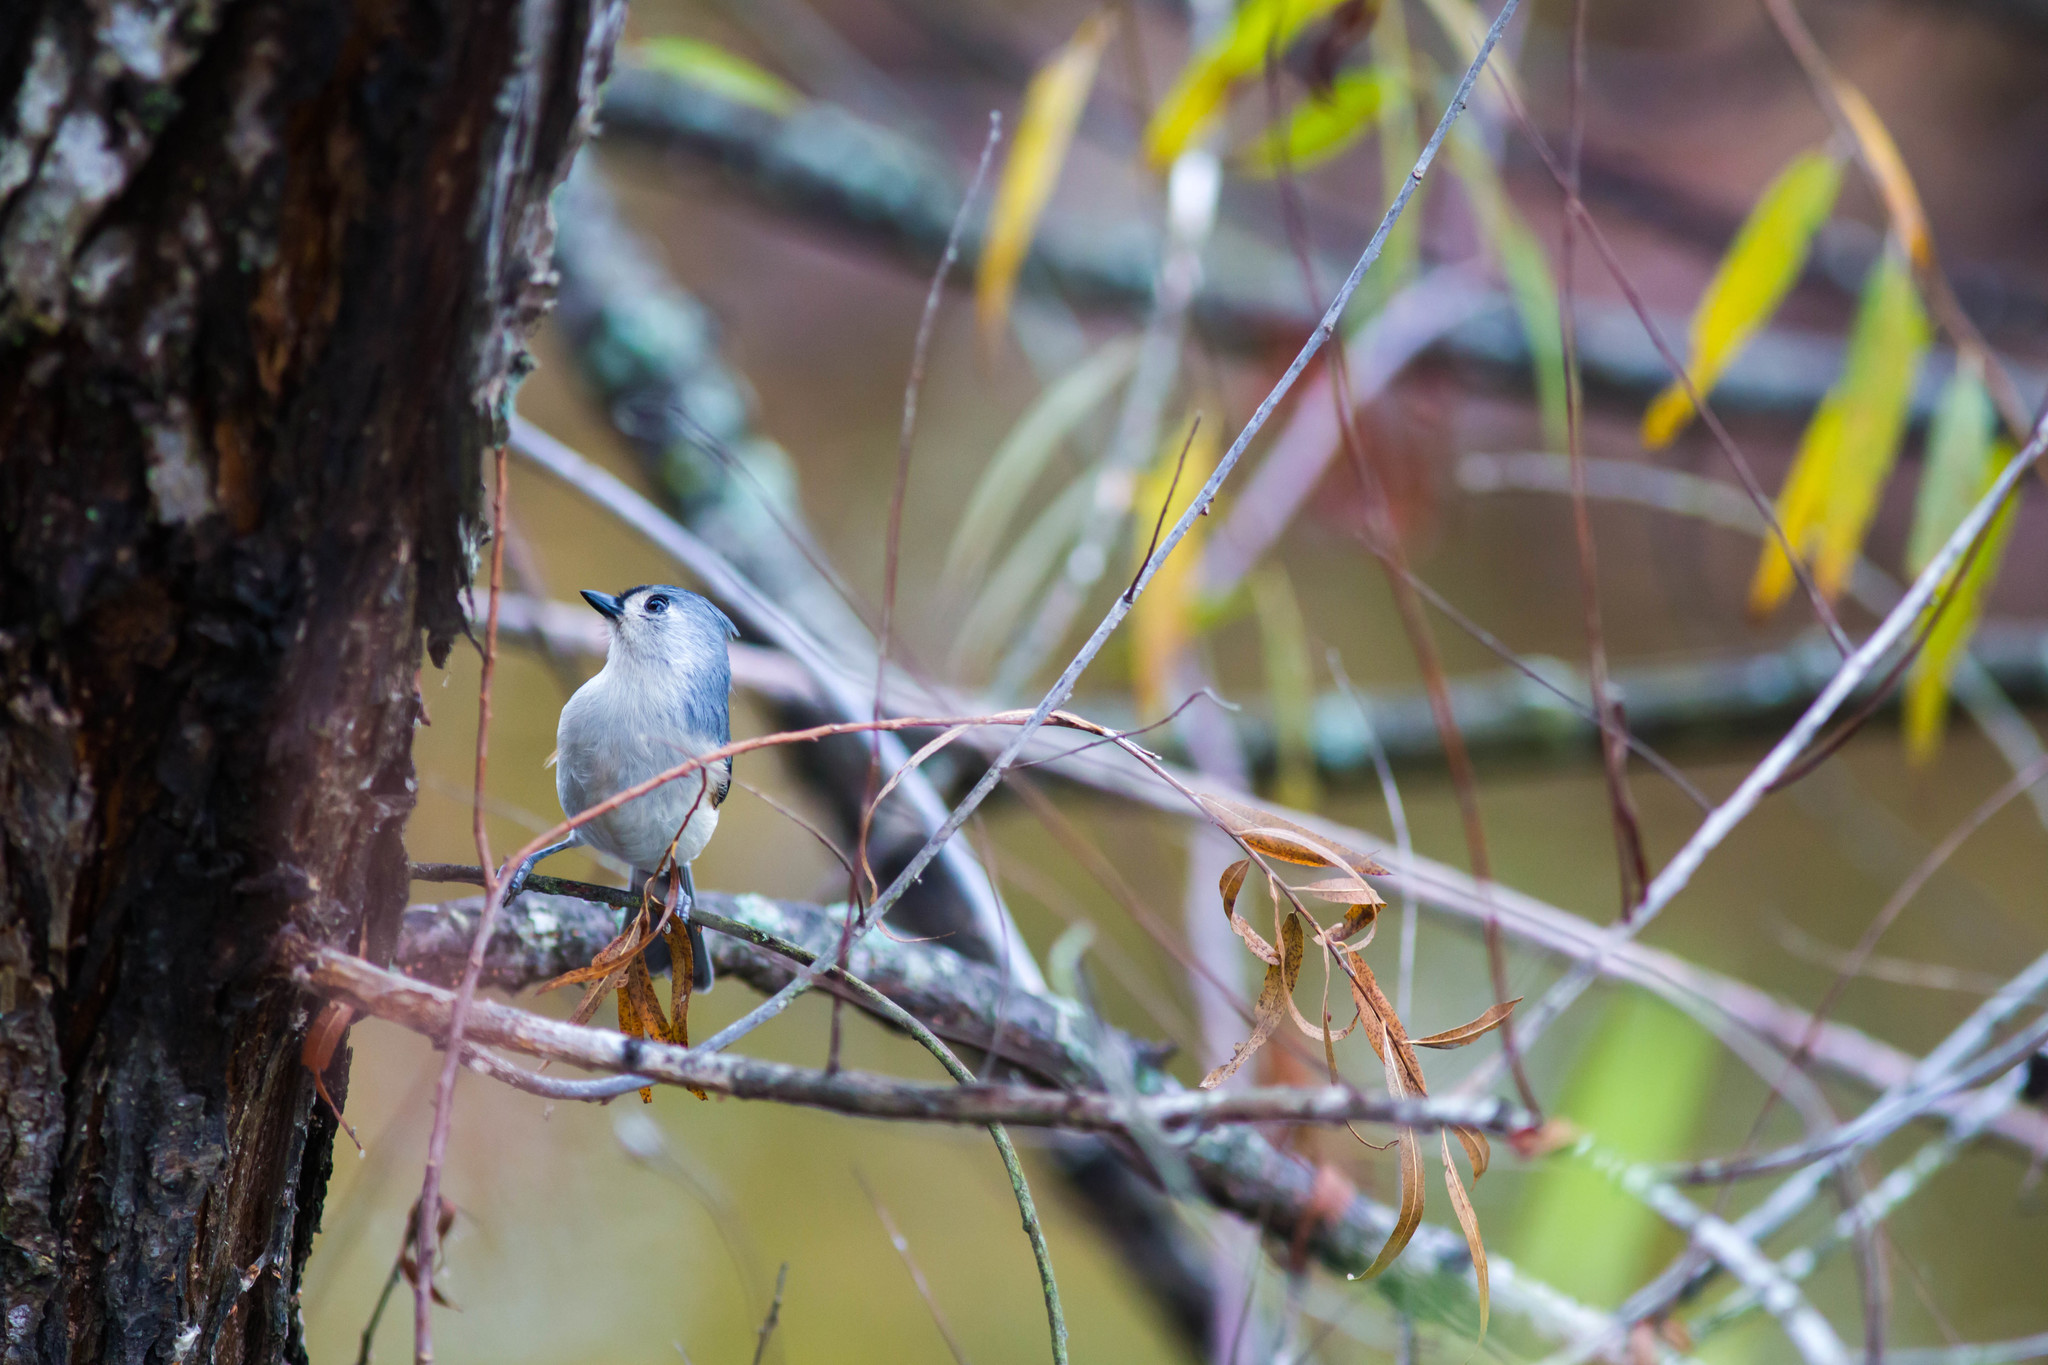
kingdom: Animalia
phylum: Chordata
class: Aves
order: Passeriformes
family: Paridae
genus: Baeolophus
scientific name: Baeolophus bicolor
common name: Tufted titmouse
